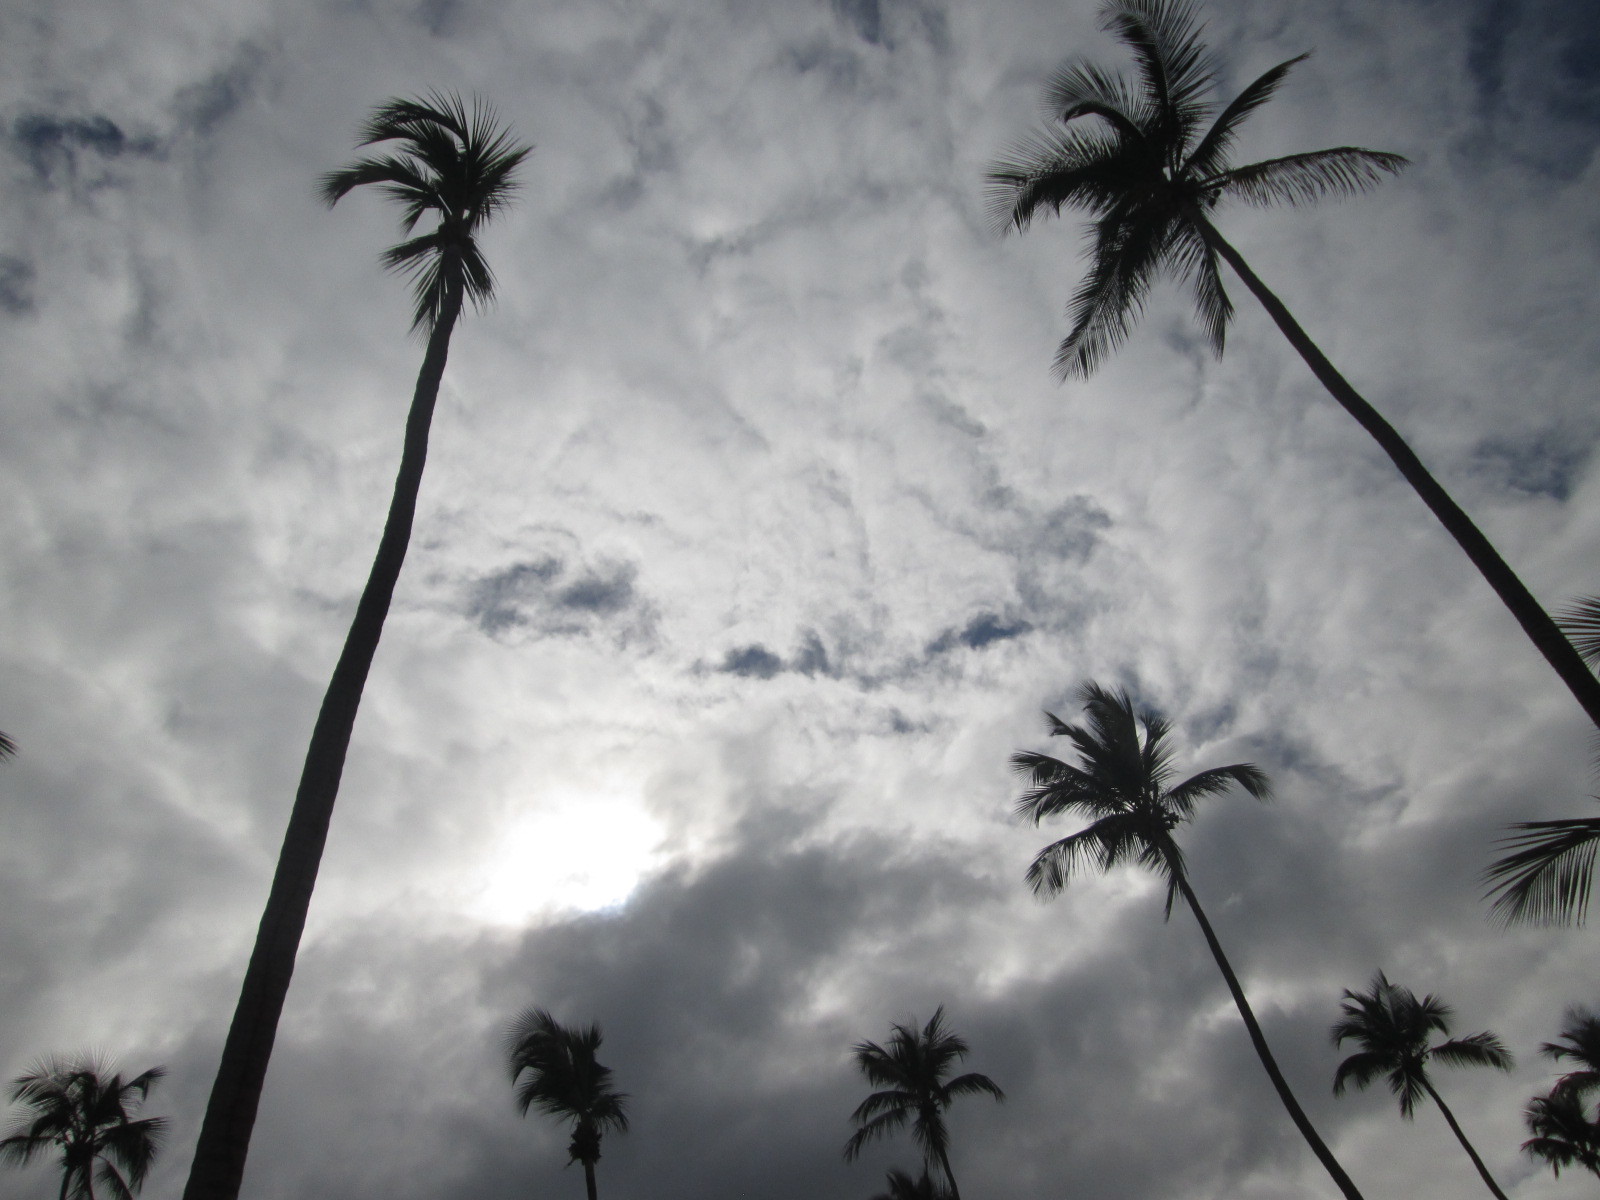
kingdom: Plantae
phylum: Tracheophyta
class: Liliopsida
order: Arecales
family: Arecaceae
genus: Cocos
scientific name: Cocos nucifera
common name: Coconut palm
